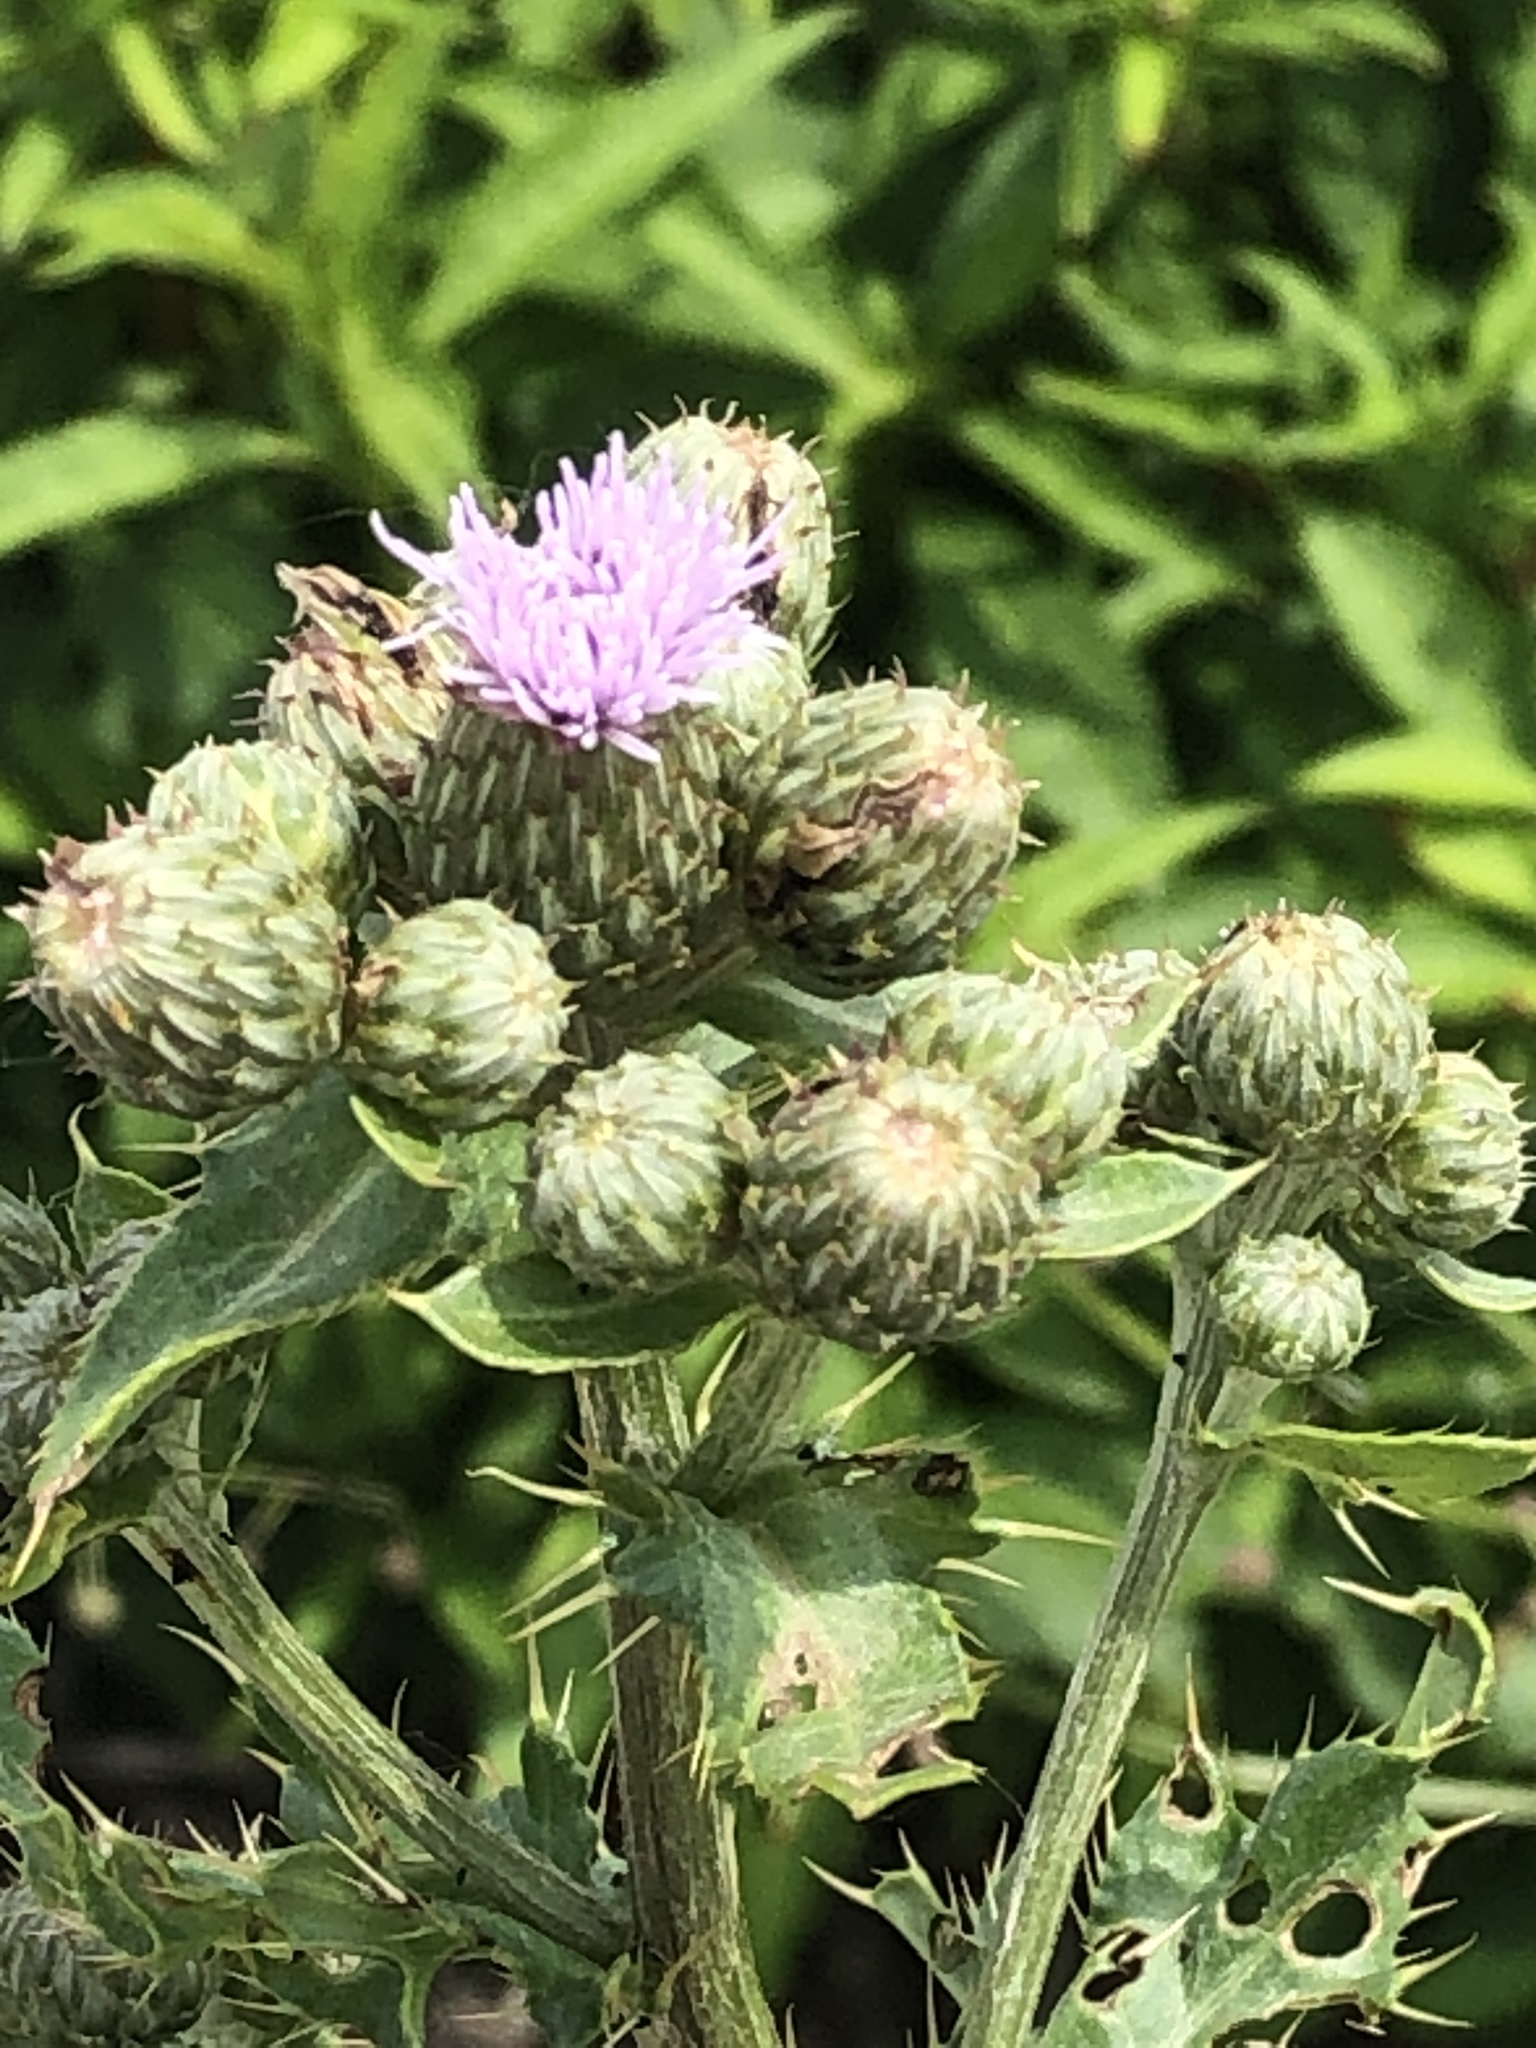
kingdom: Plantae
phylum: Tracheophyta
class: Magnoliopsida
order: Asterales
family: Asteraceae
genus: Cirsium
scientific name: Cirsium arvense
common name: Creeping thistle
